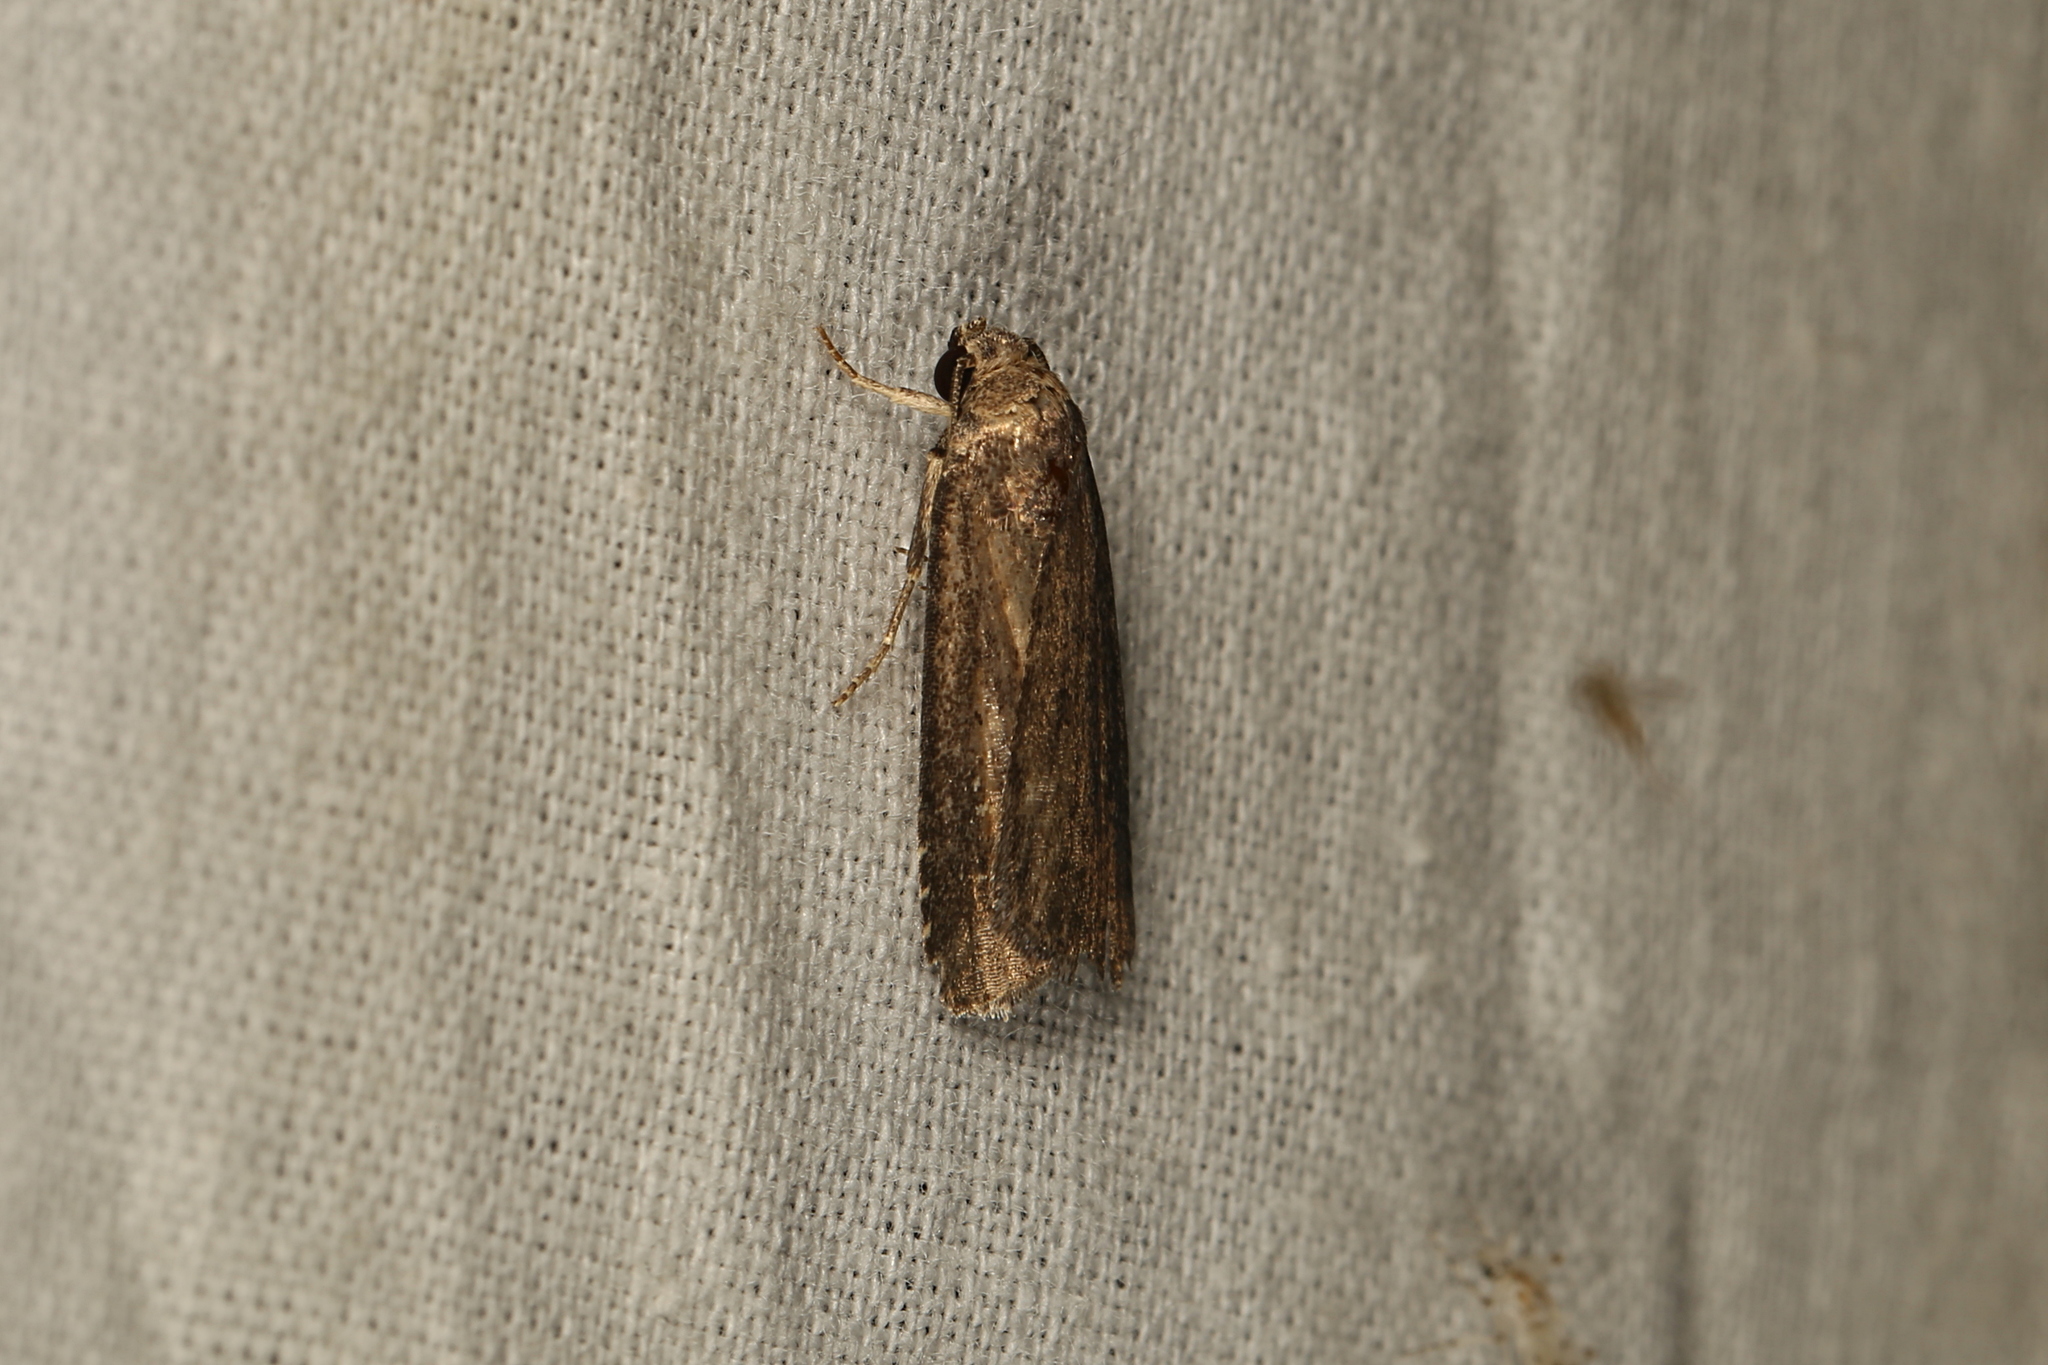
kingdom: Animalia
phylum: Arthropoda
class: Insecta
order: Lepidoptera
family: Noctuidae
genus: Athetis
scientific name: Athetis tenuis
